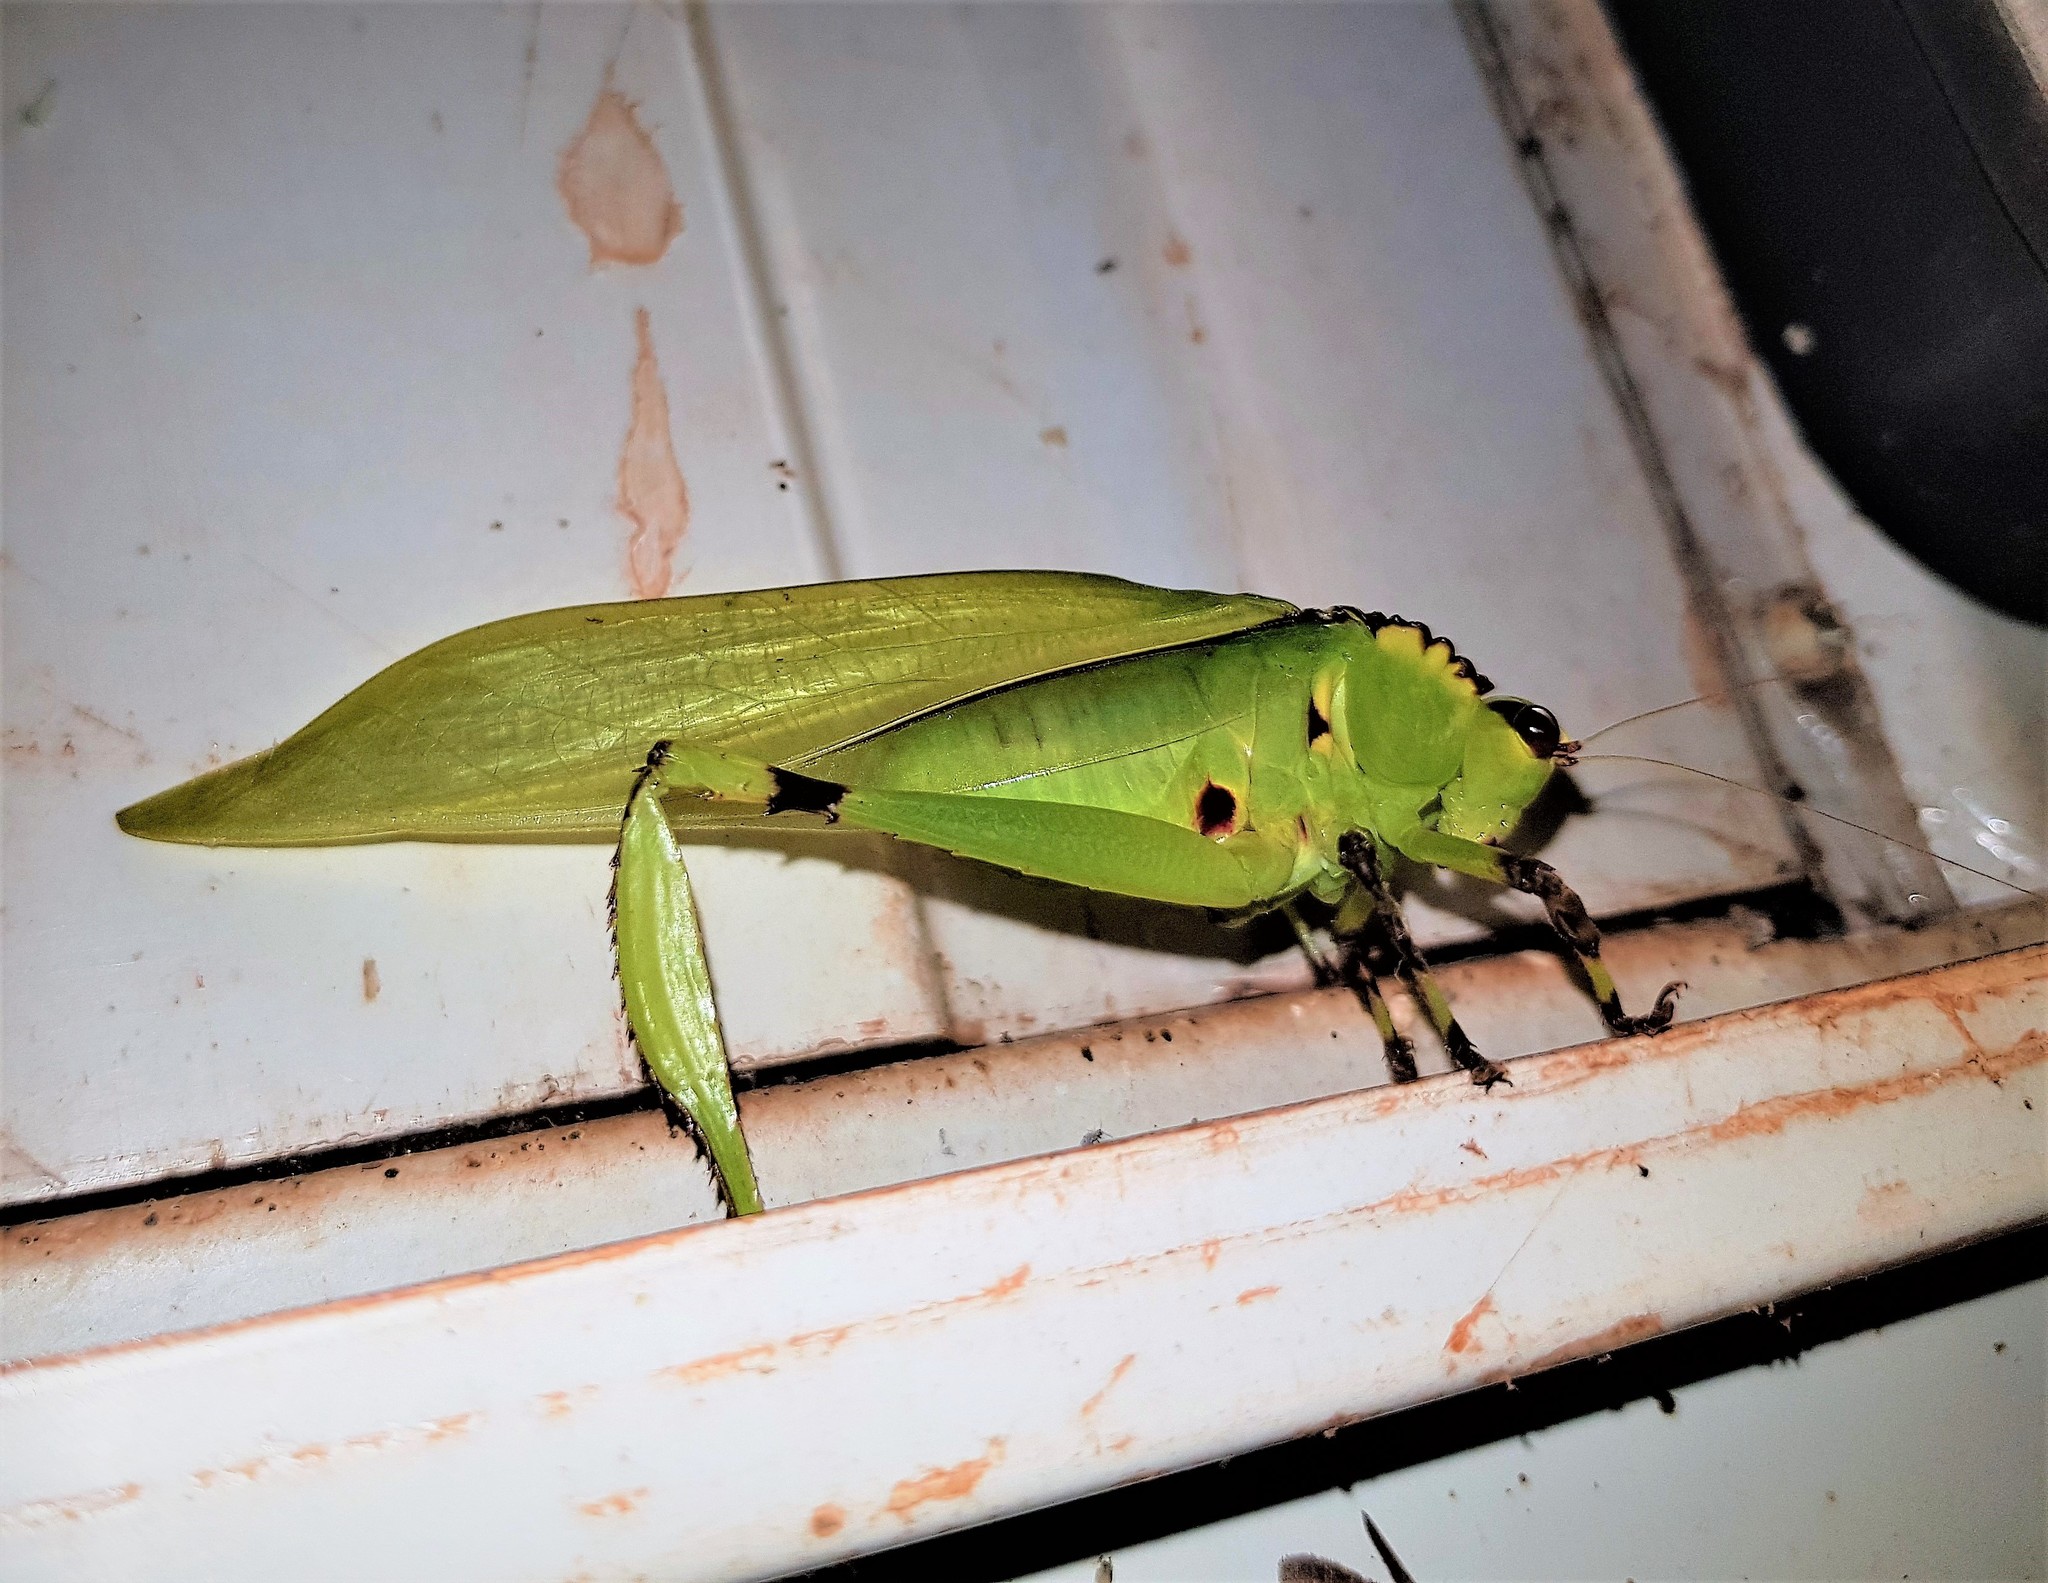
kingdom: Animalia
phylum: Arthropoda
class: Insecta
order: Orthoptera
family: Tettigoniidae
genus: Cnemidophyllum
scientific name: Cnemidophyllum lineatum
